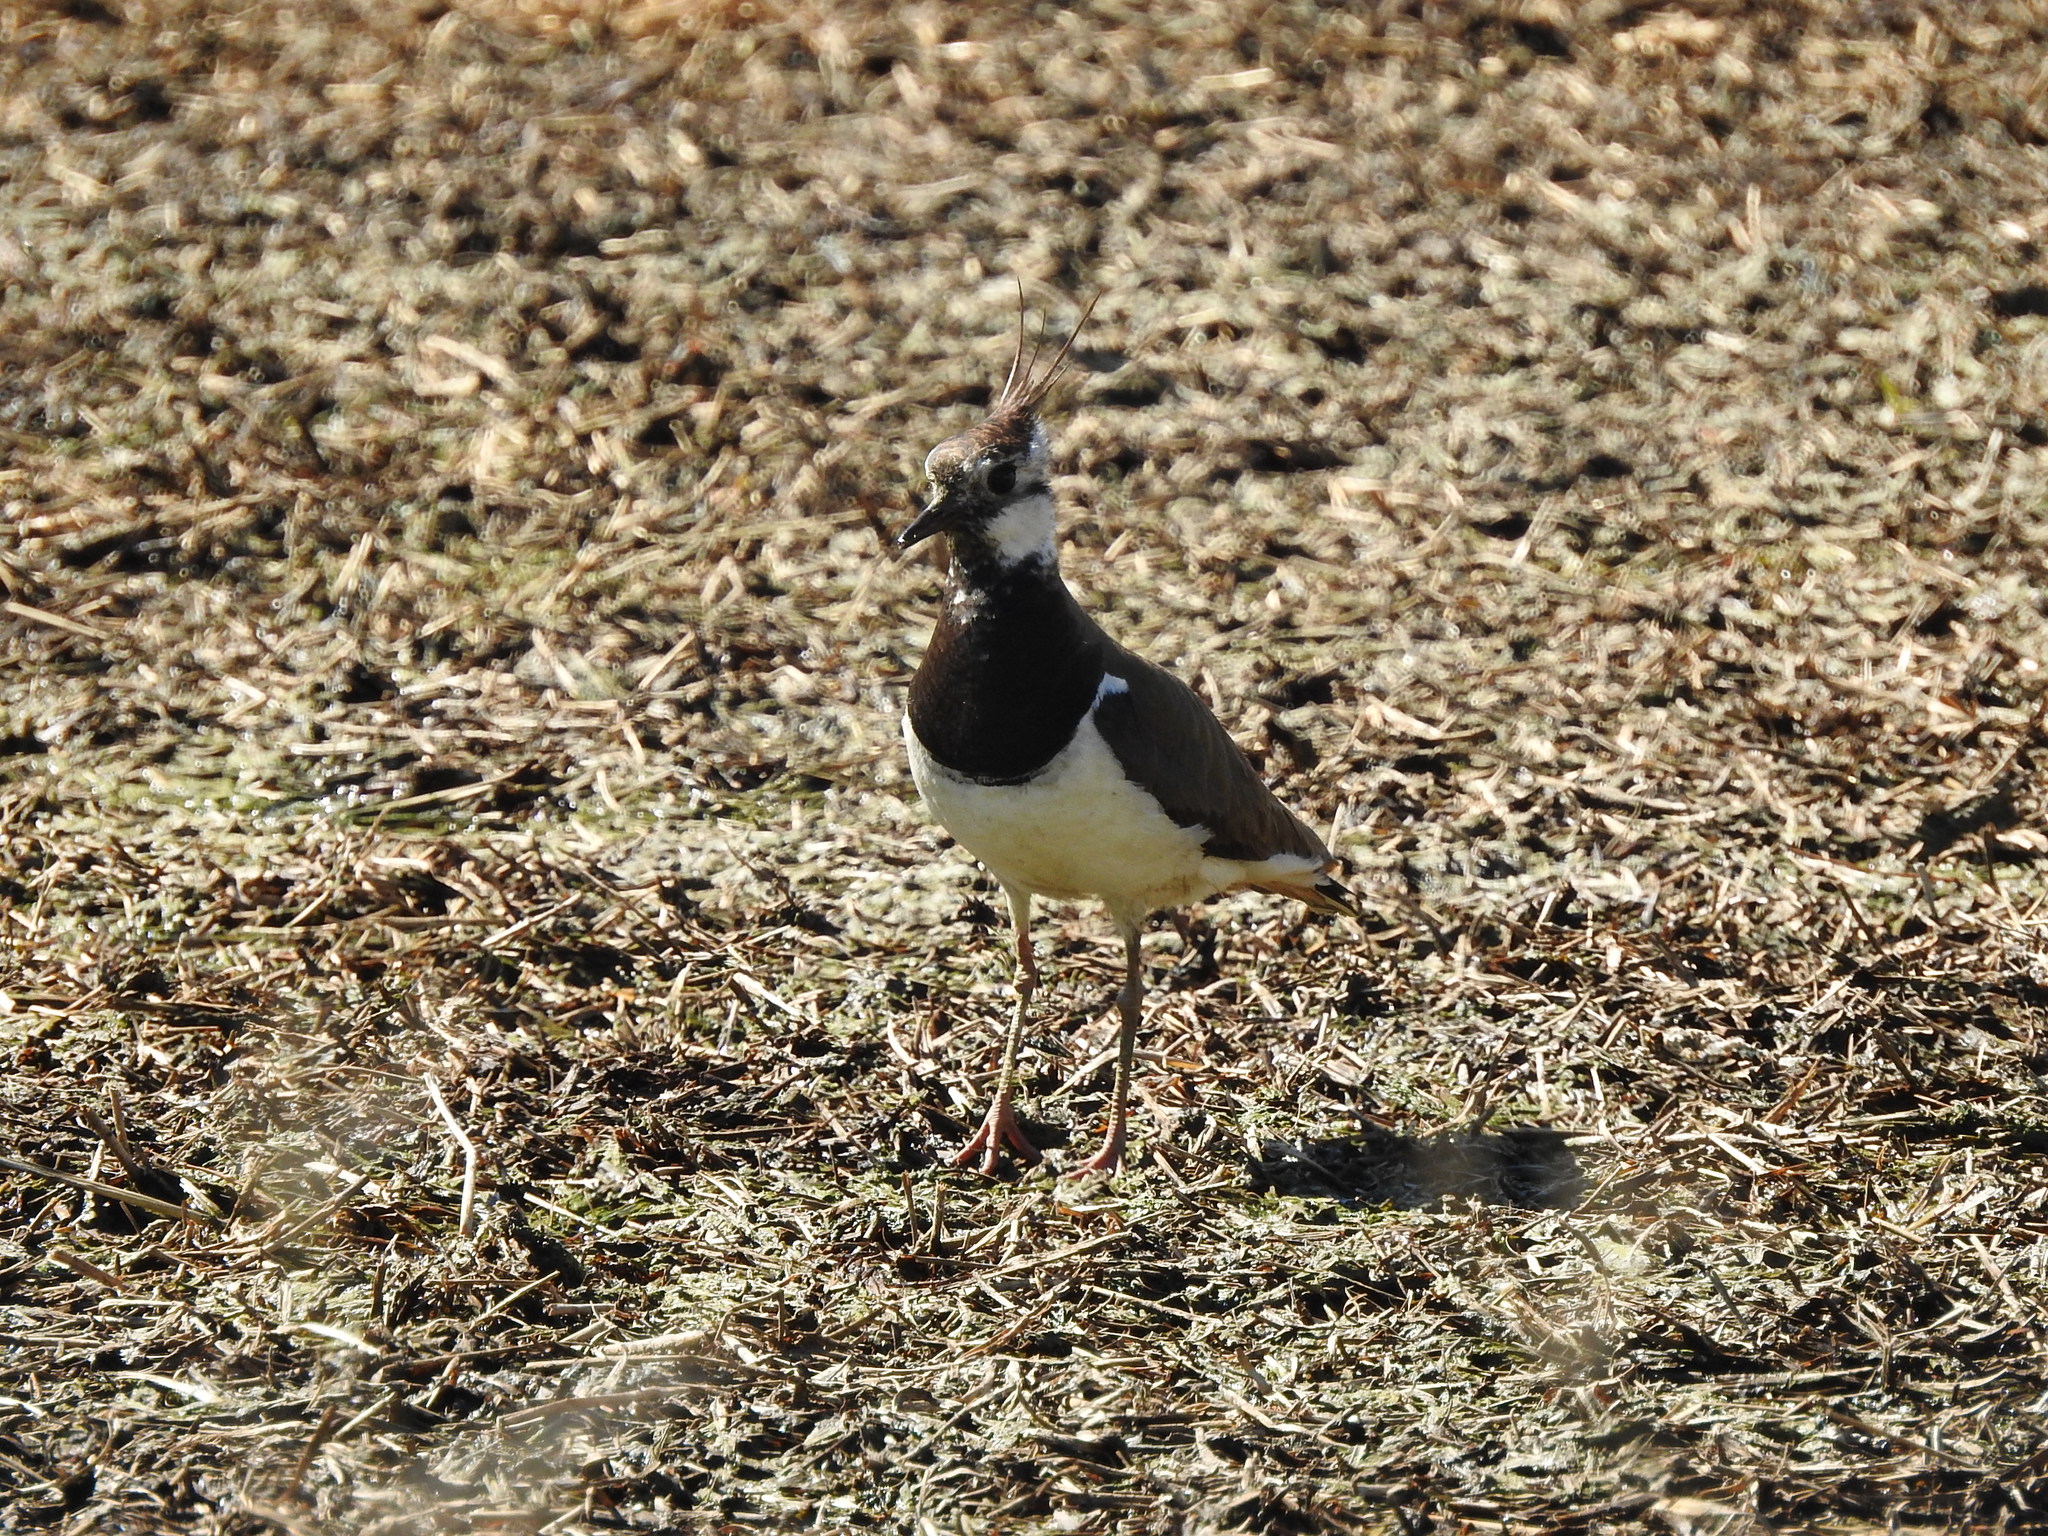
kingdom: Animalia
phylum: Chordata
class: Aves
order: Charadriiformes
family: Charadriidae
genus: Vanellus
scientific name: Vanellus vanellus
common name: Northern lapwing
